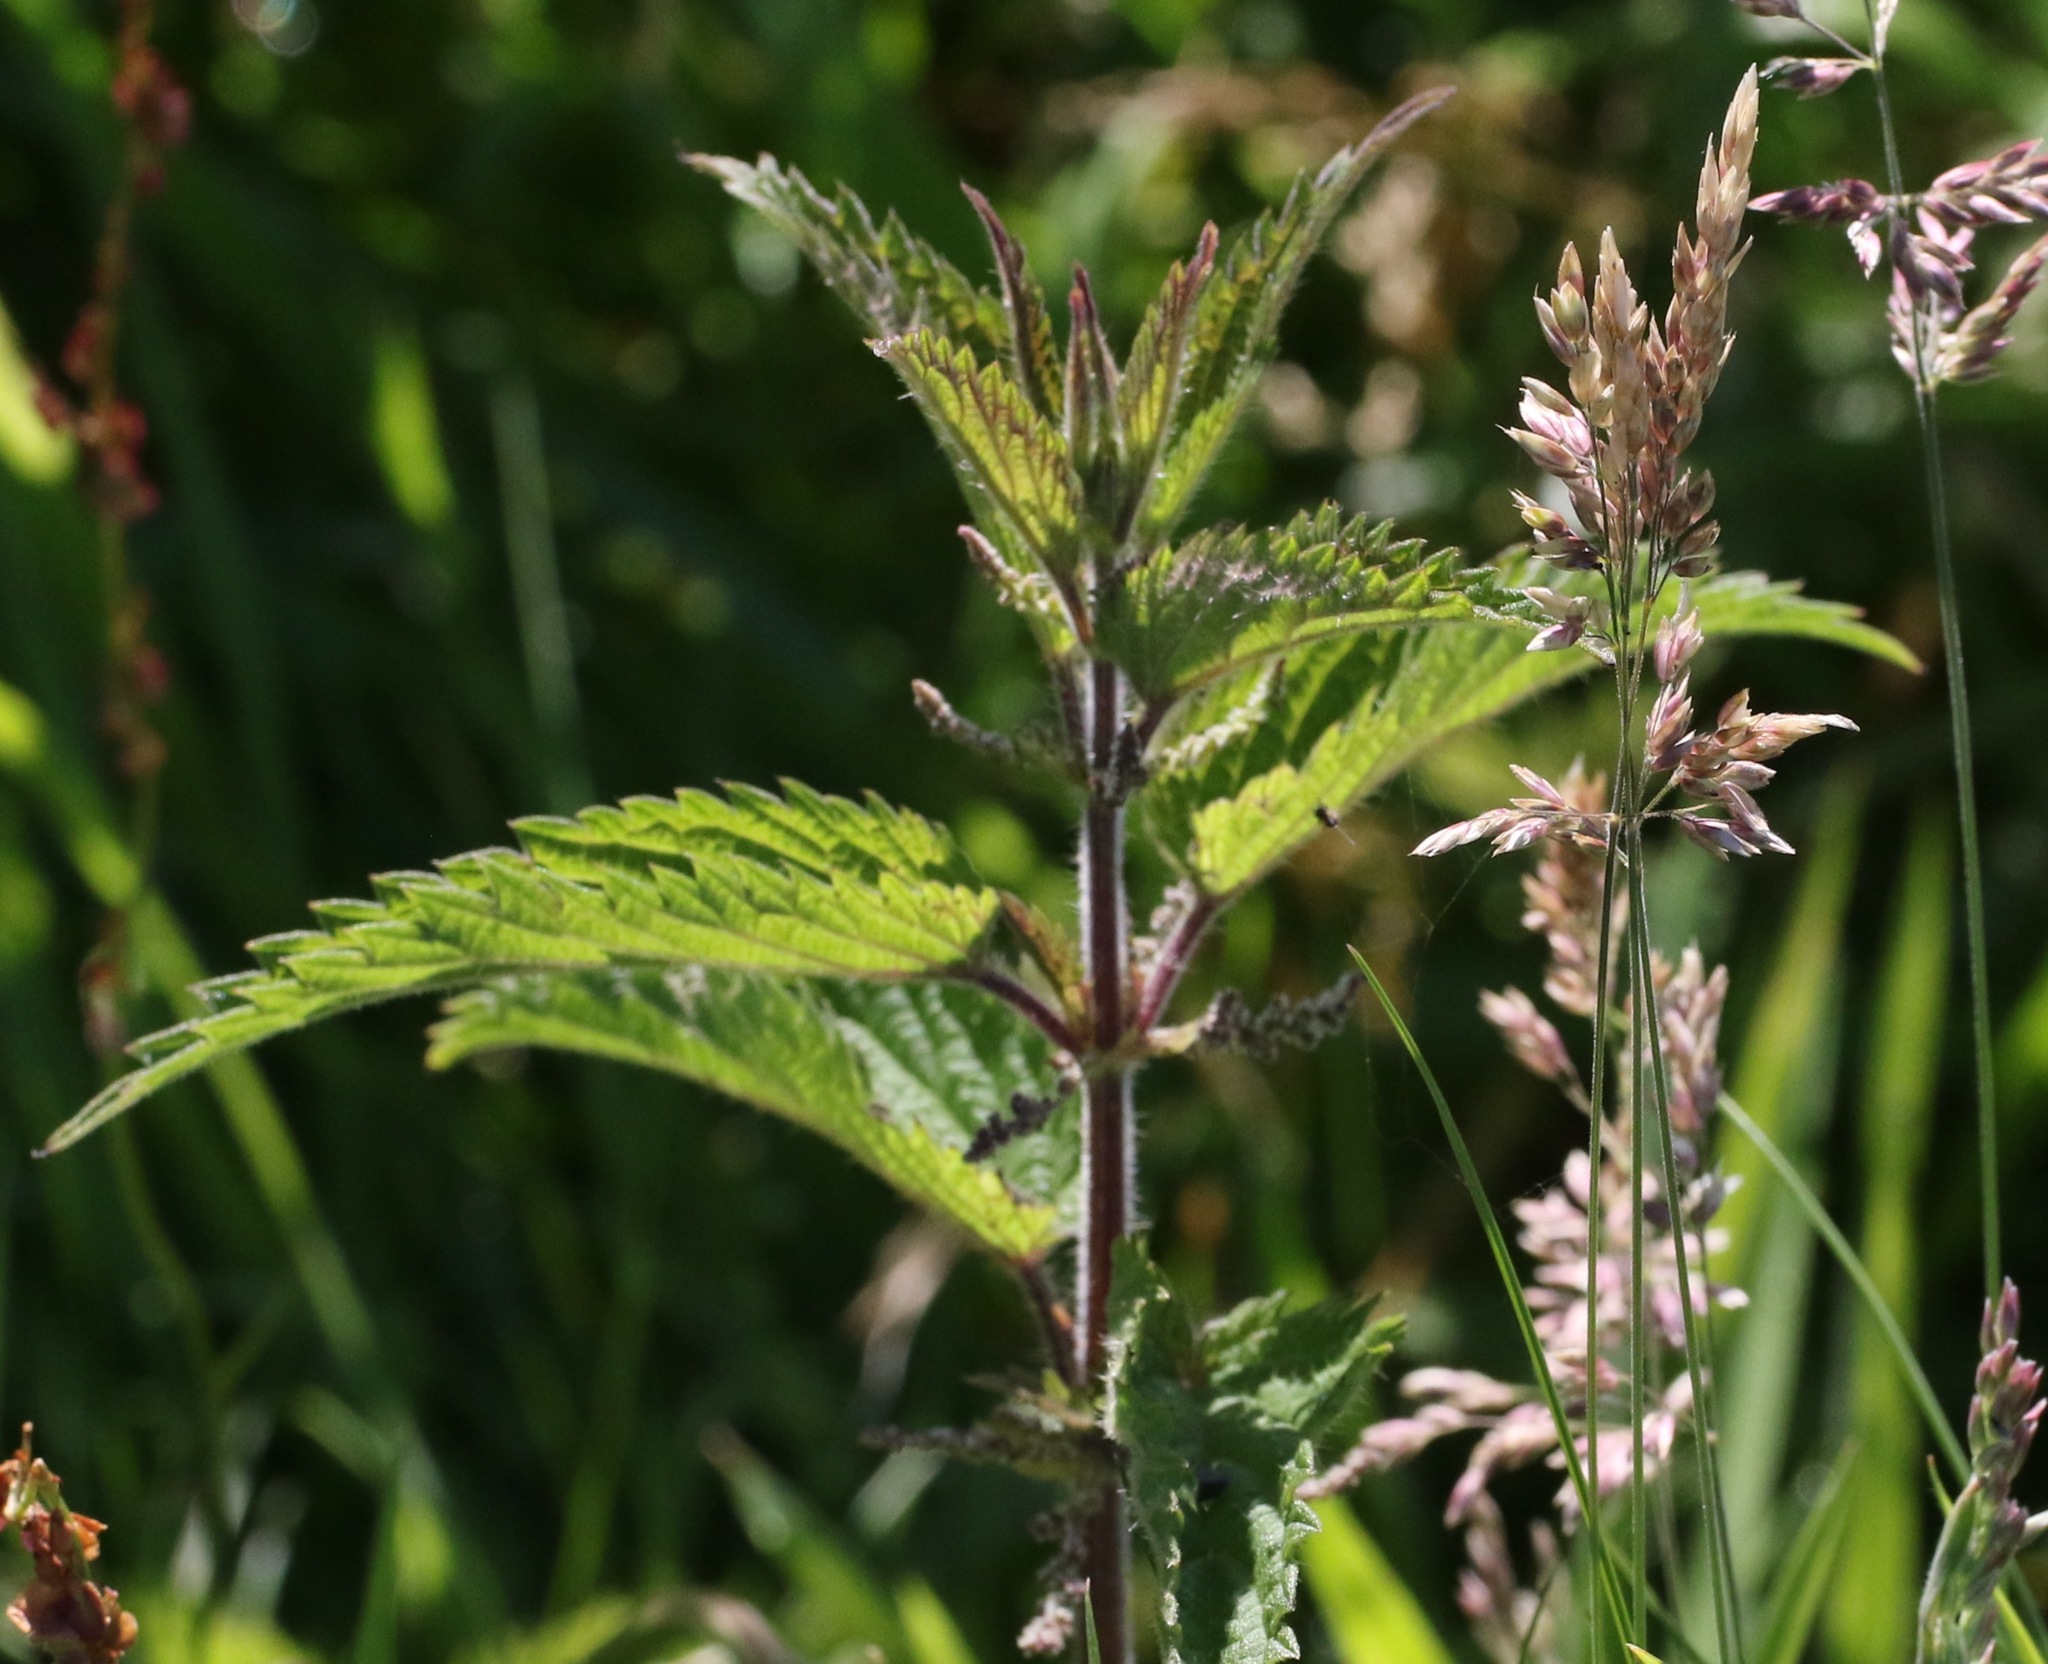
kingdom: Plantae
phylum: Tracheophyta
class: Magnoliopsida
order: Rosales
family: Urticaceae
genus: Urtica
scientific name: Urtica dioica
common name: Common nettle
